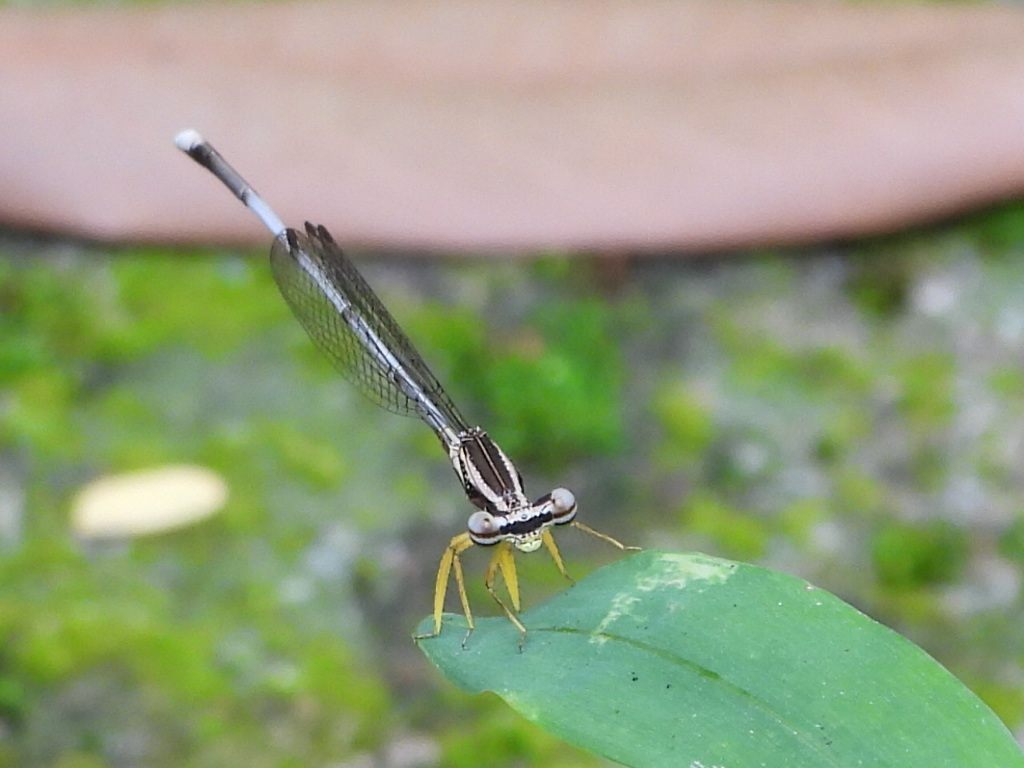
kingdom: Animalia
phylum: Arthropoda
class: Insecta
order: Odonata
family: Platycnemididae
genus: Copera
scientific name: Copera marginipes
